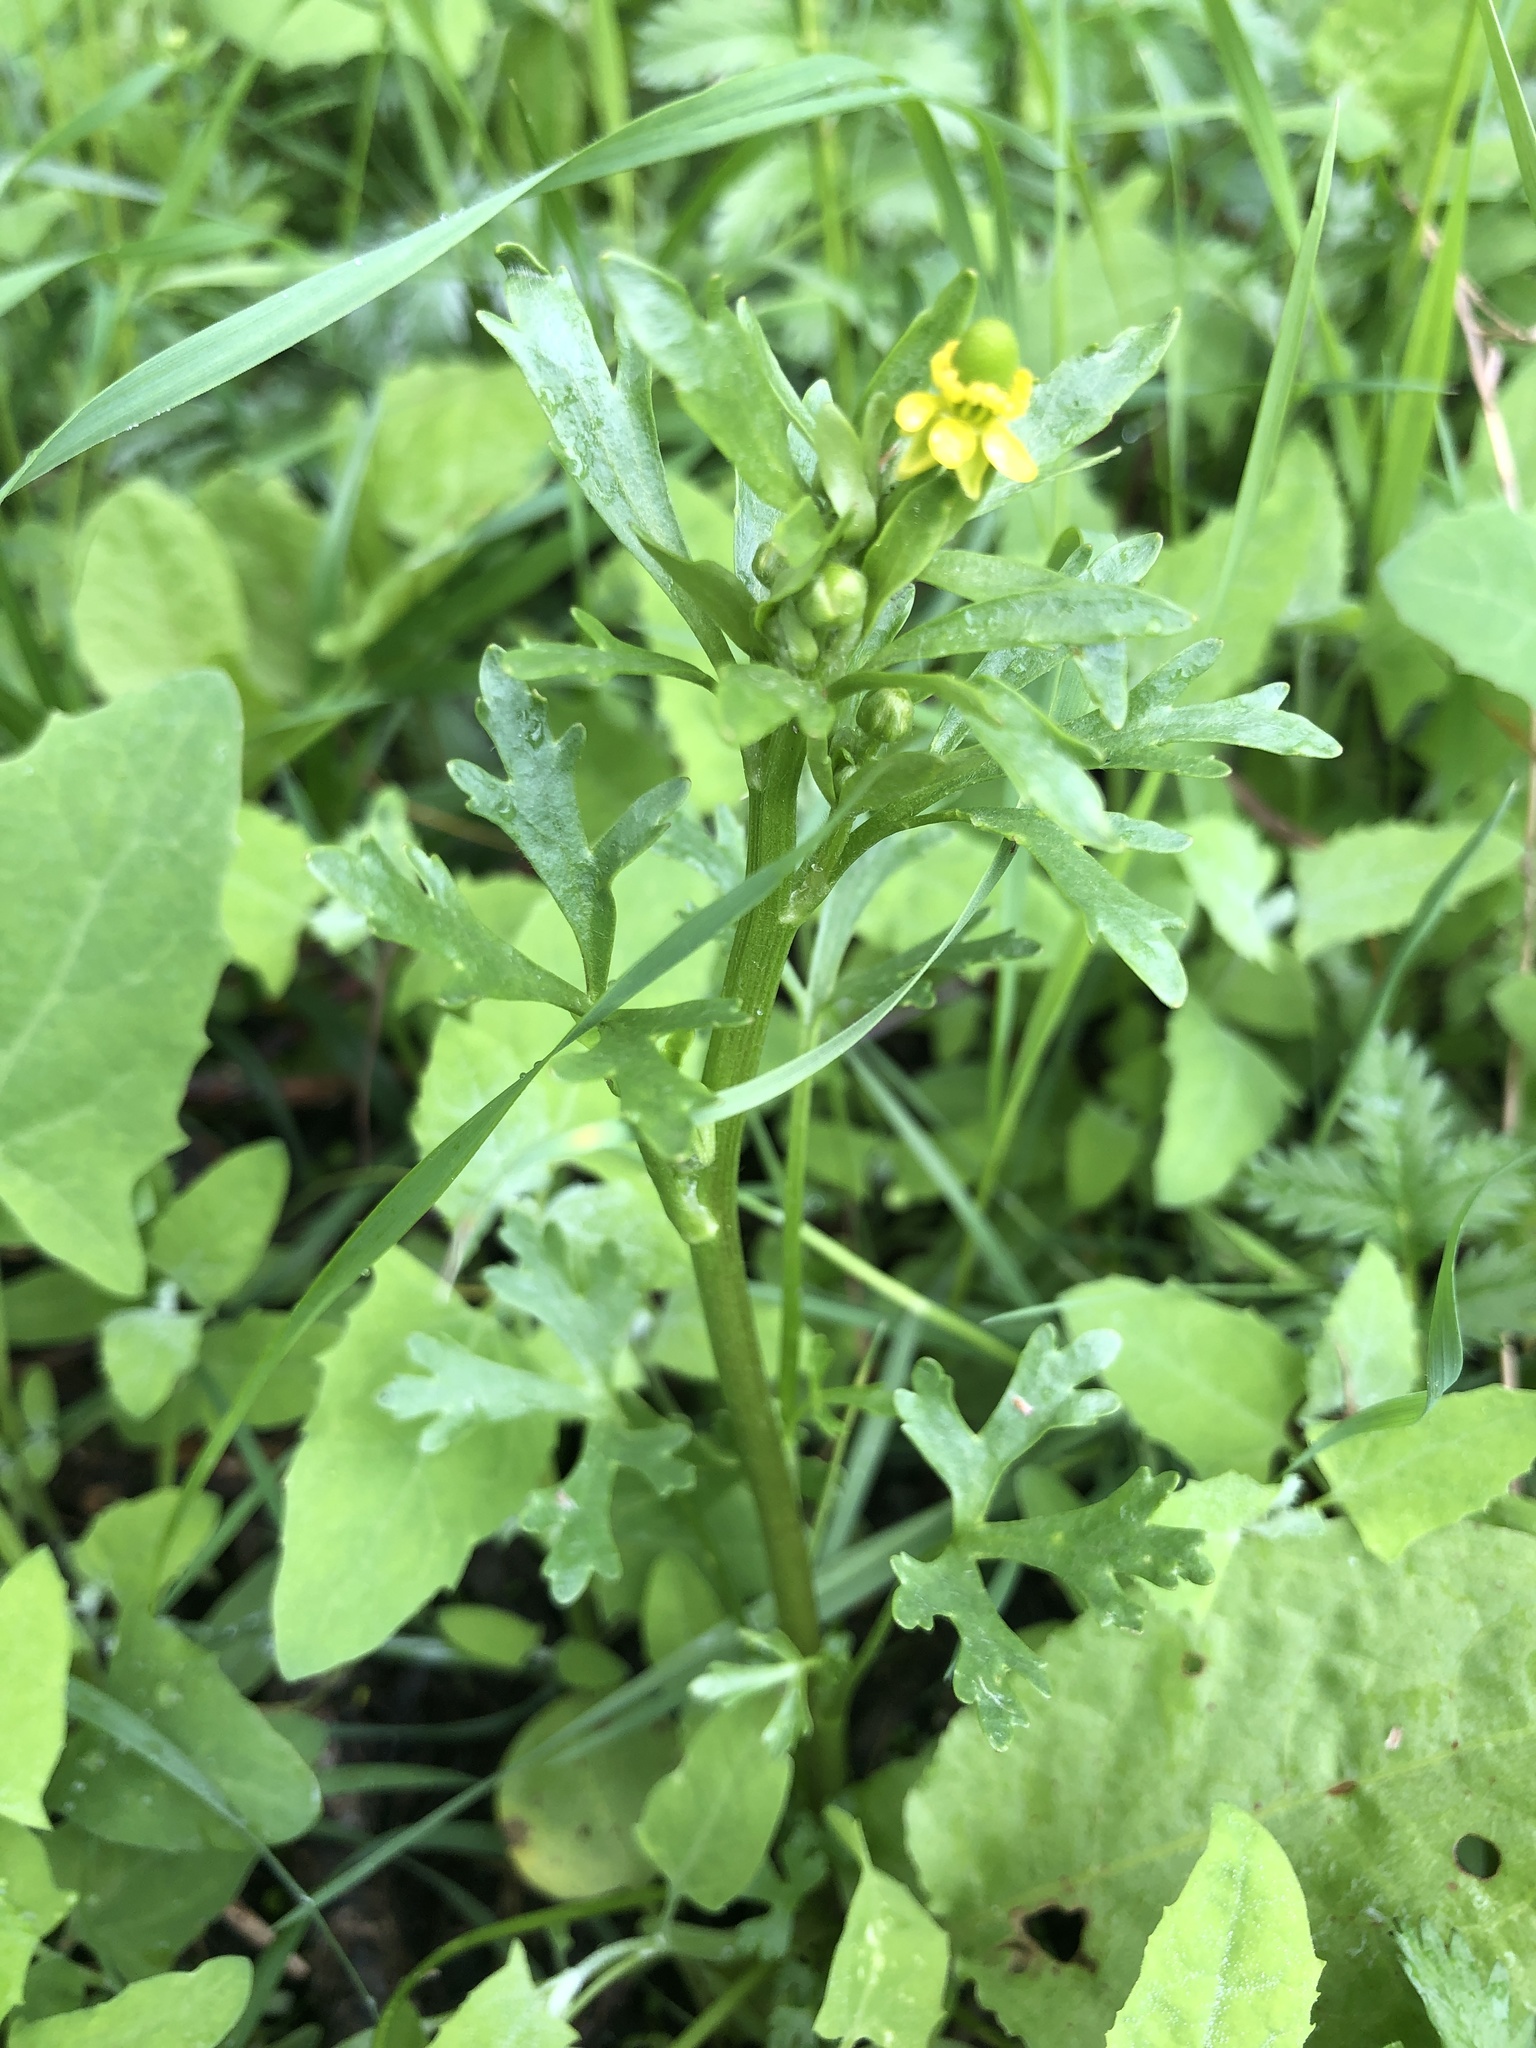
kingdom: Plantae
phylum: Tracheophyta
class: Magnoliopsida
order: Ranunculales
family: Ranunculaceae
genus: Ranunculus
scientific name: Ranunculus sceleratus
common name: Celery-leaved buttercup
